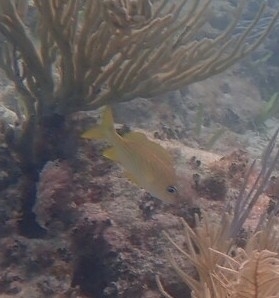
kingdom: Animalia
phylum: Chordata
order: Perciformes
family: Haemulidae
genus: Haemulon
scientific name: Haemulon flavolineatum
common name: French grunt
